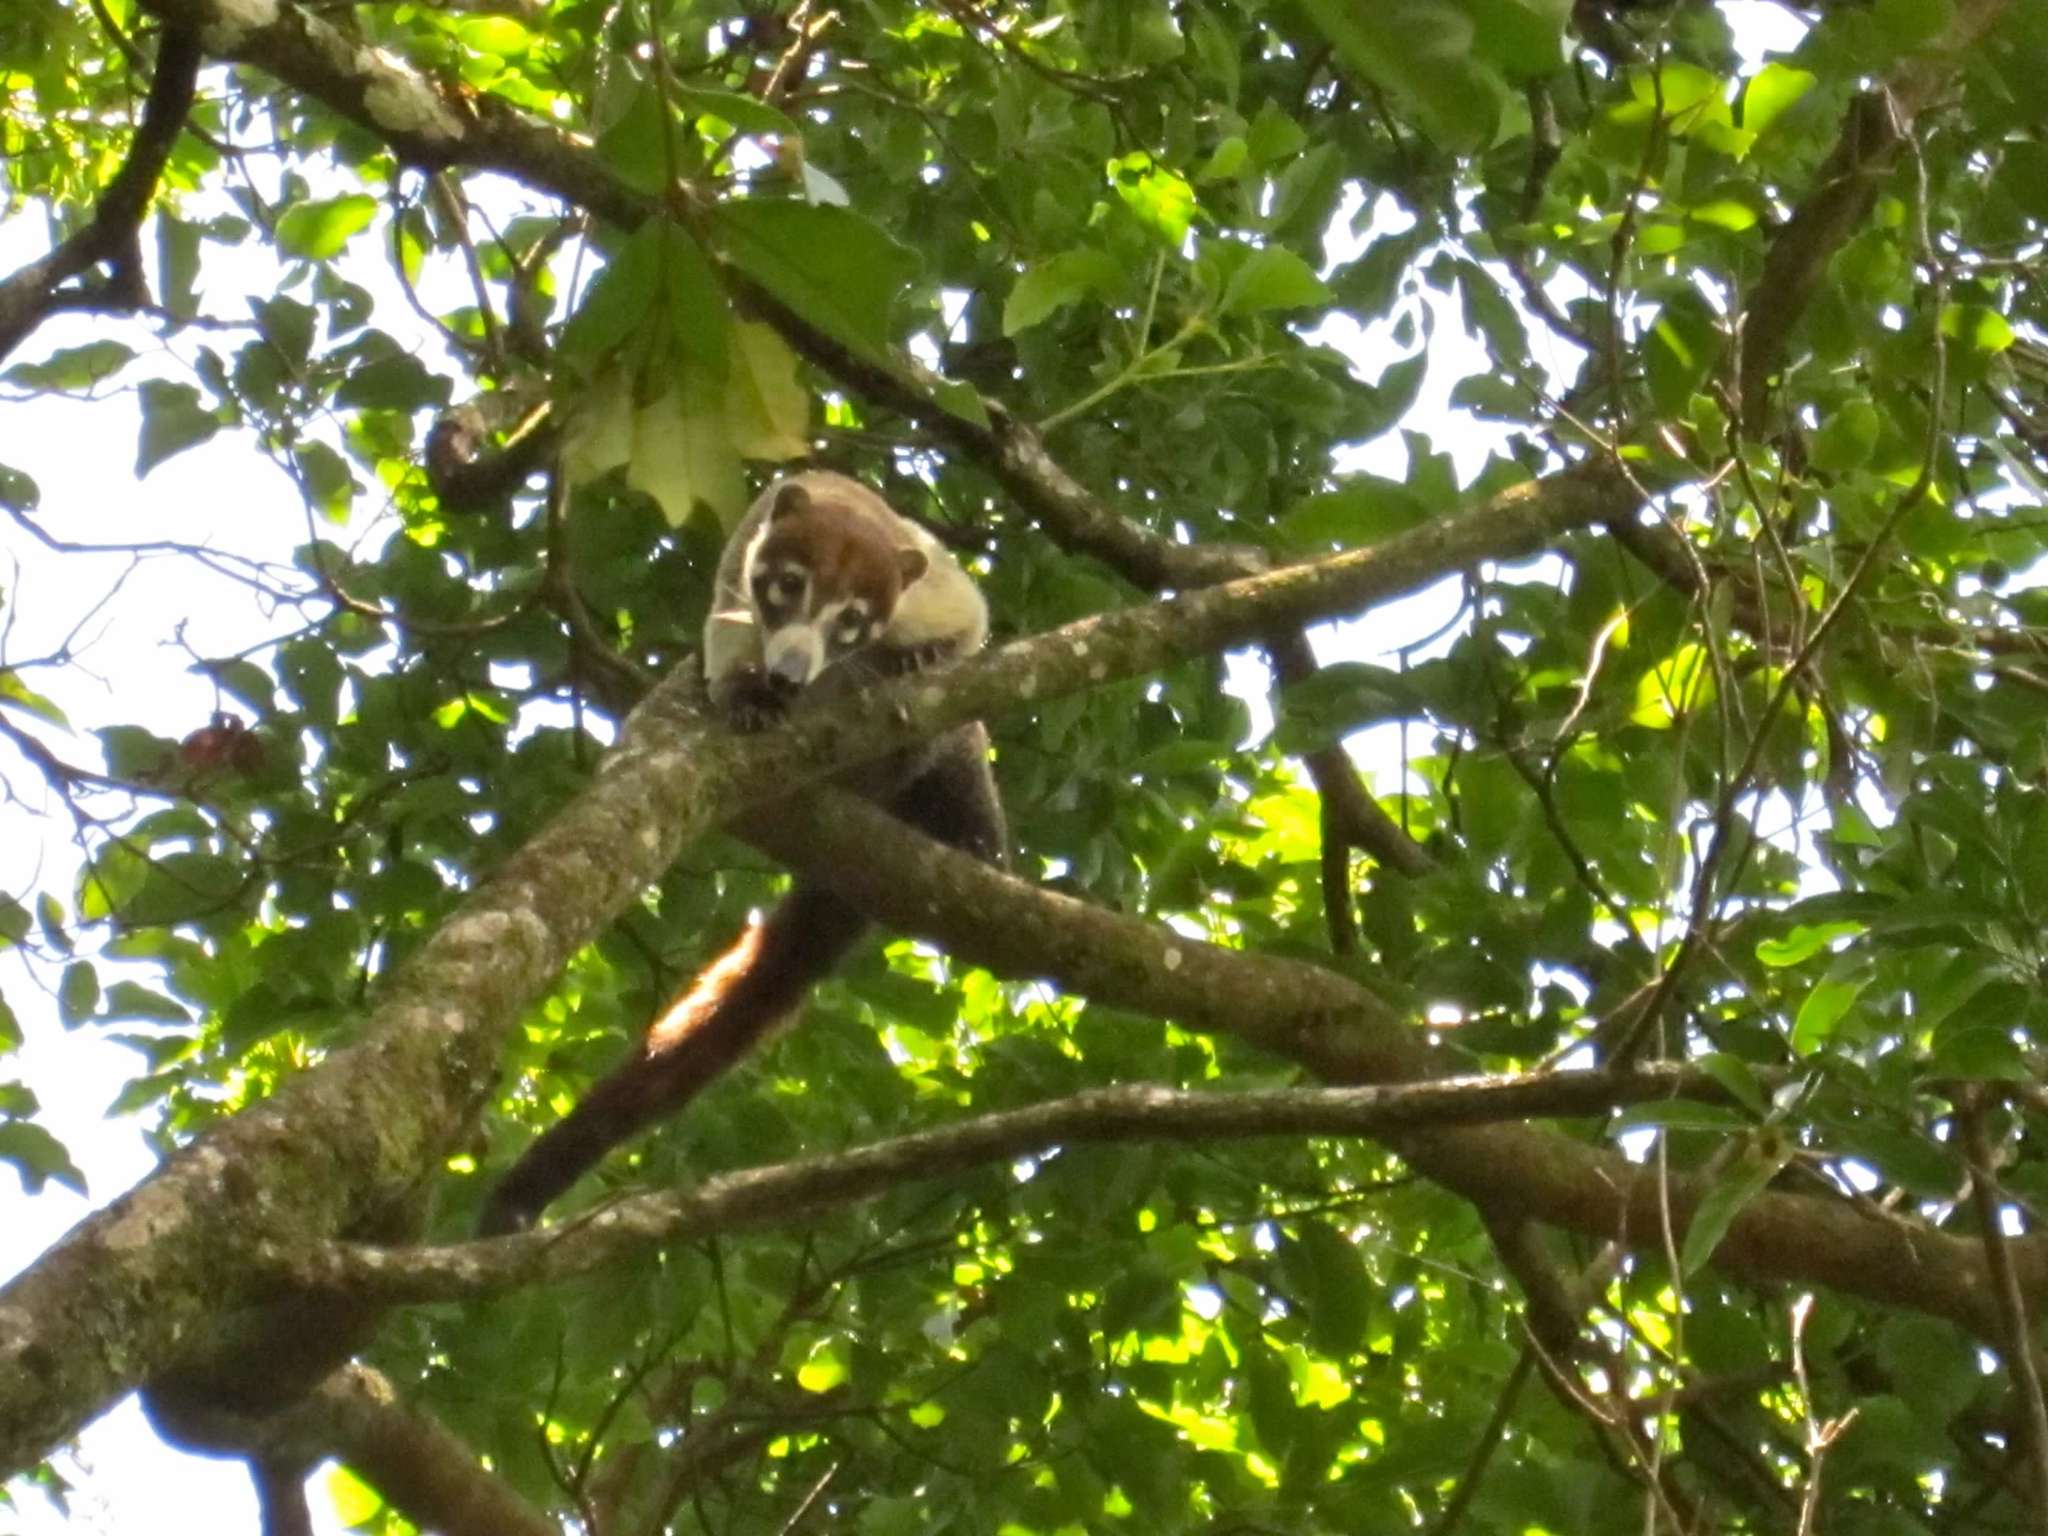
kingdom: Animalia
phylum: Chordata
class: Mammalia
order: Carnivora
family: Procyonidae
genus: Nasua
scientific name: Nasua narica
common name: White-nosed coati
